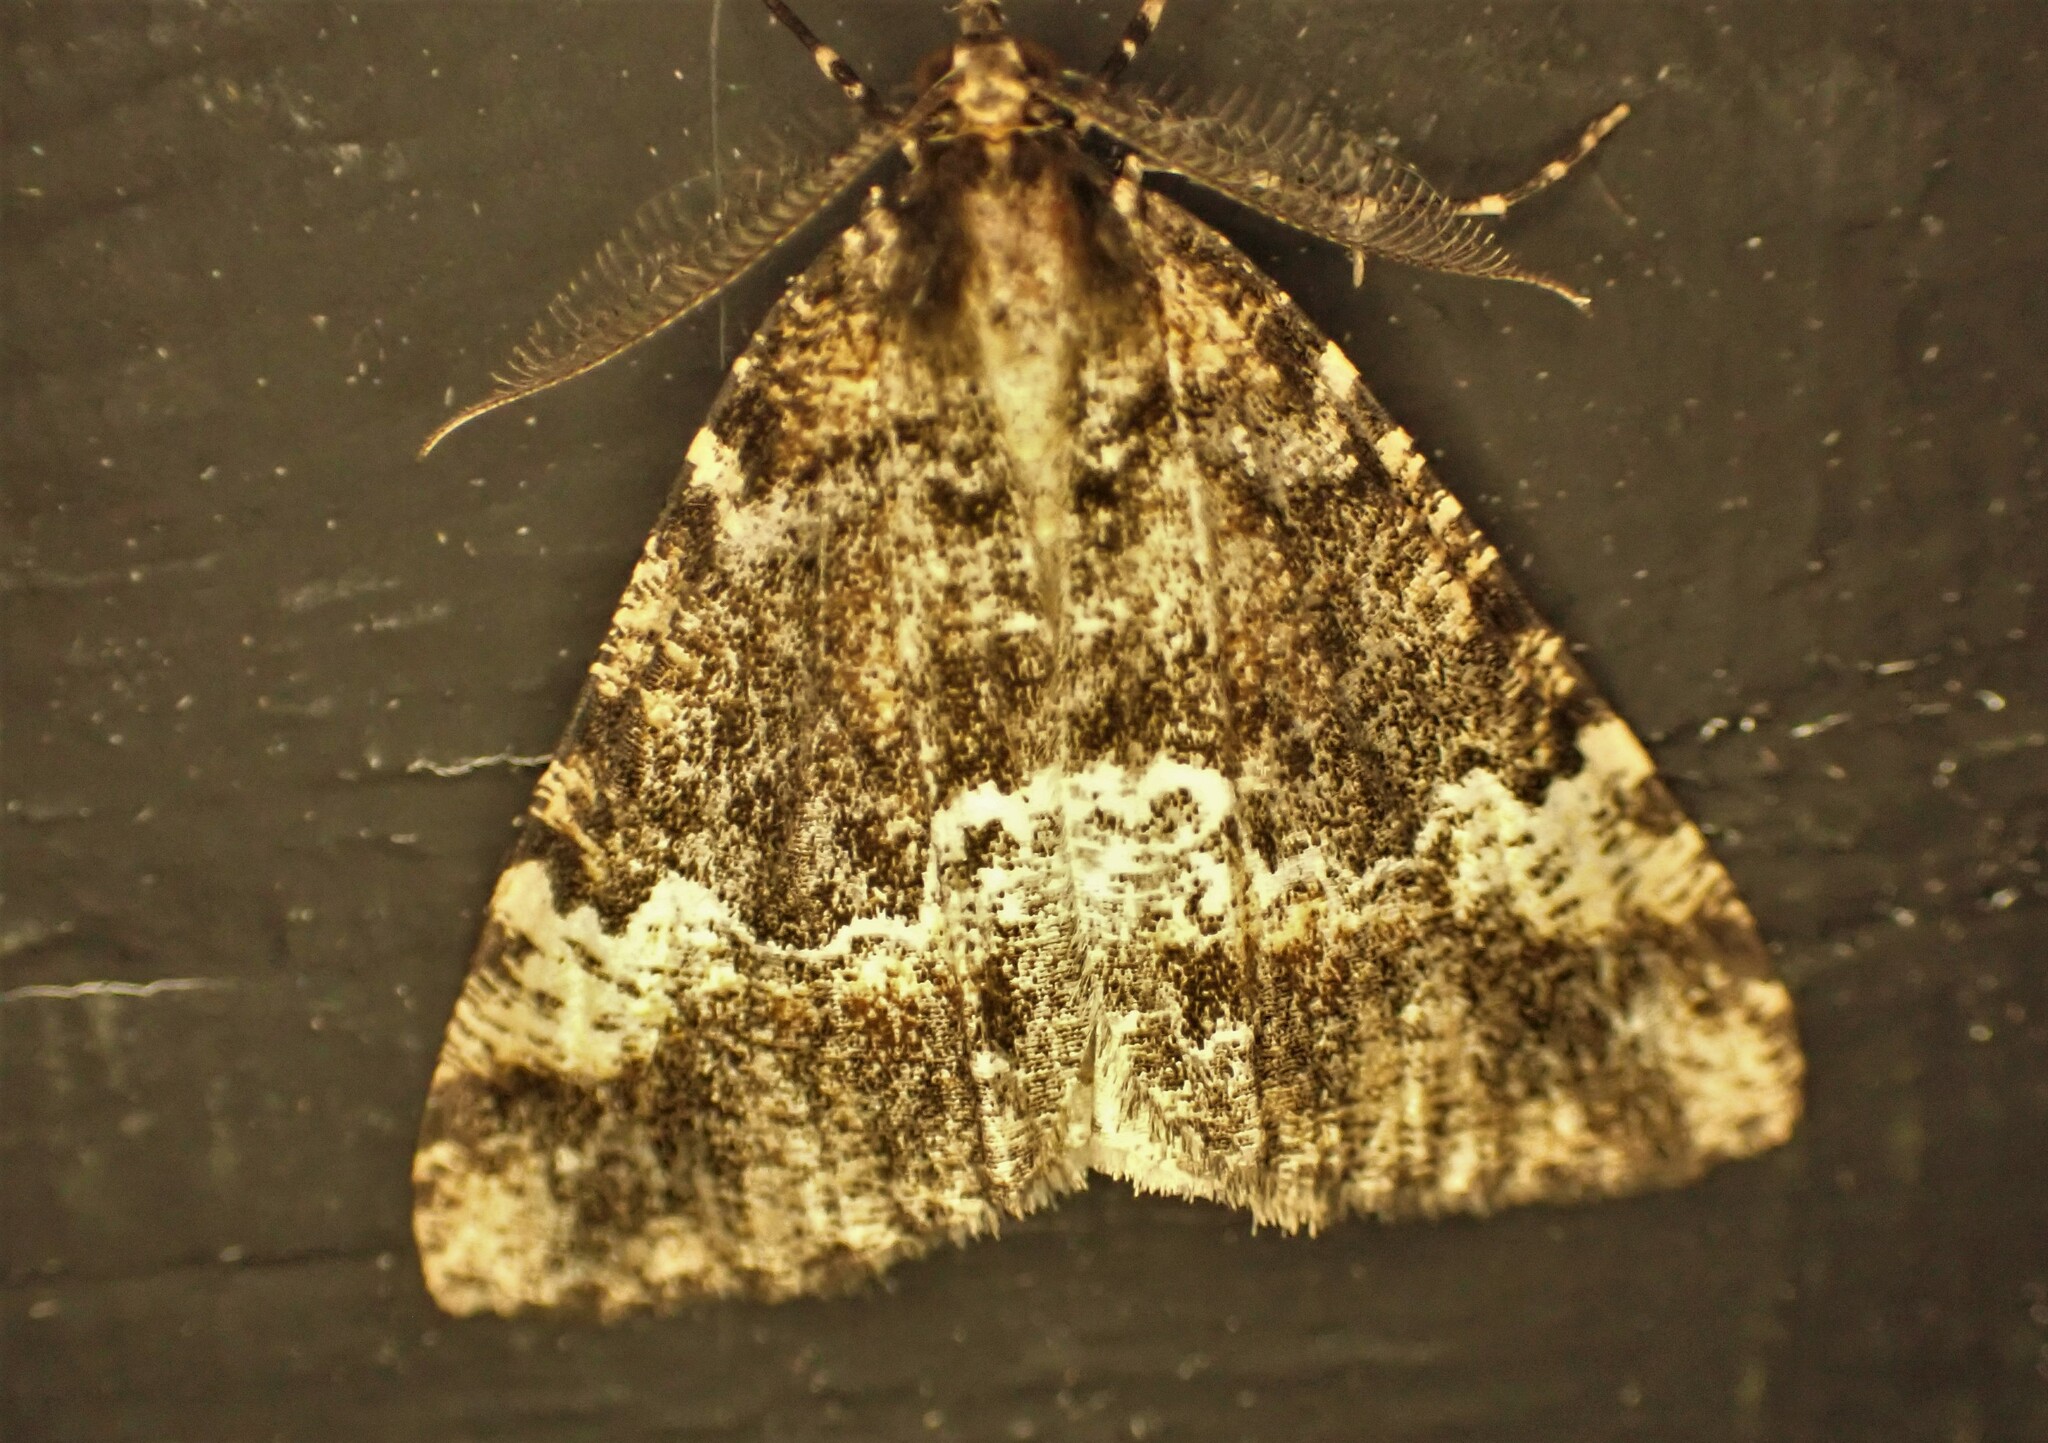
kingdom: Animalia
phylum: Arthropoda
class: Insecta
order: Lepidoptera
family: Geometridae
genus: Pseudocoremia
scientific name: Pseudocoremia productata
